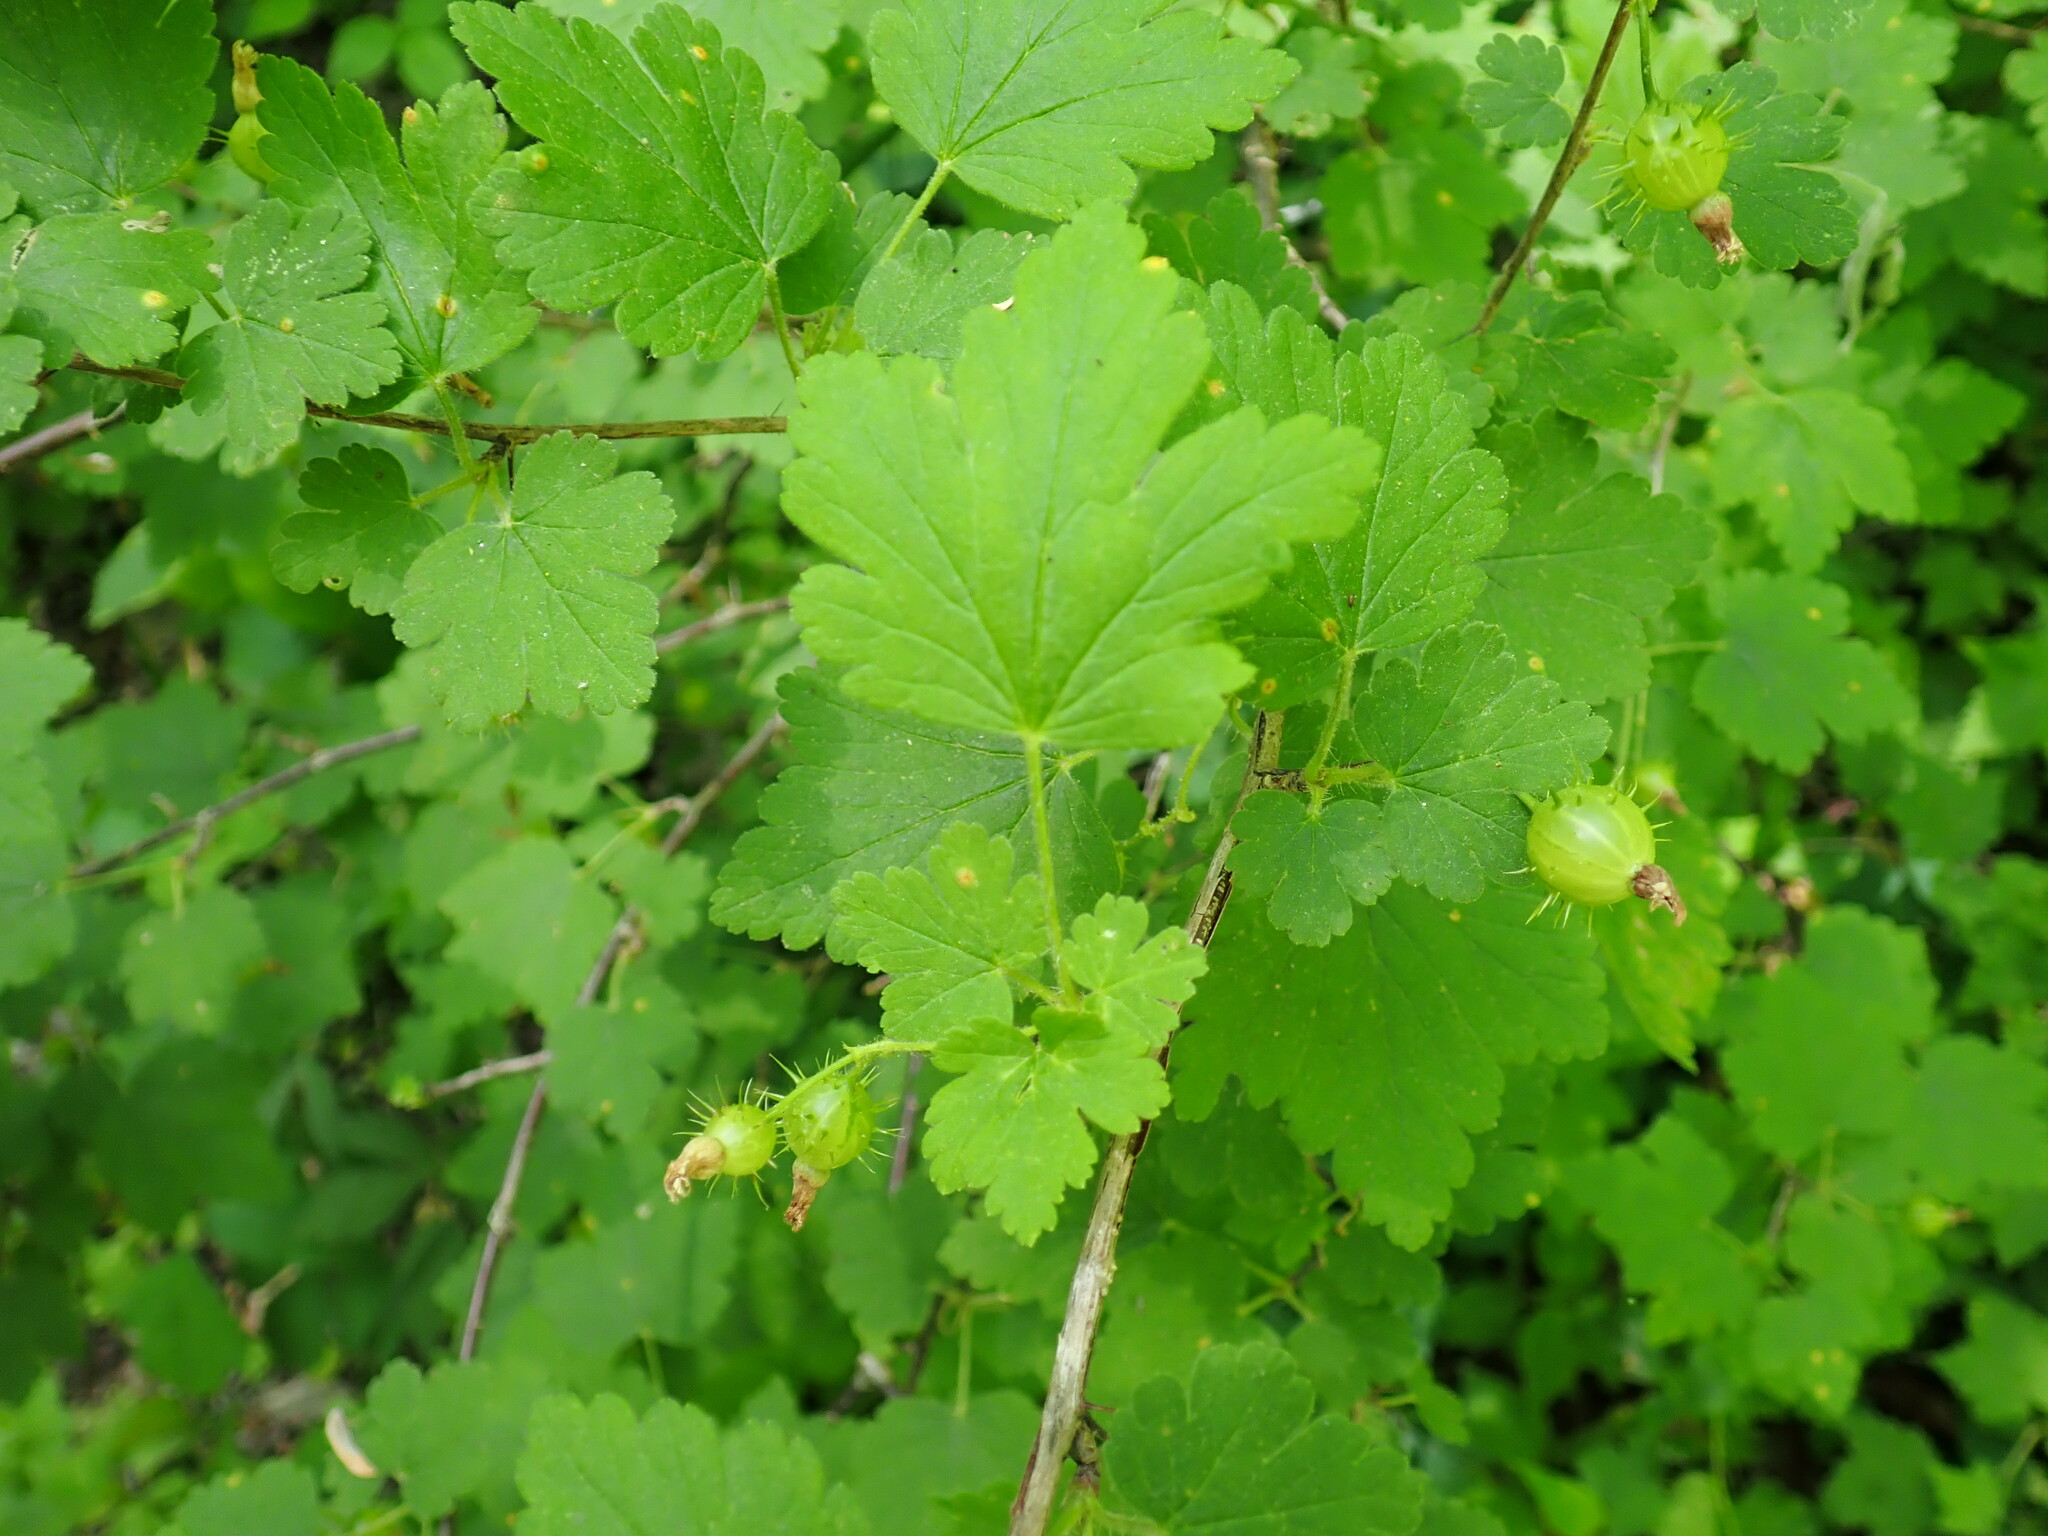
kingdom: Plantae
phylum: Tracheophyta
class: Magnoliopsida
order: Saxifragales
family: Grossulariaceae
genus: Ribes
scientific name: Ribes cynosbati
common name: American gooseberry
